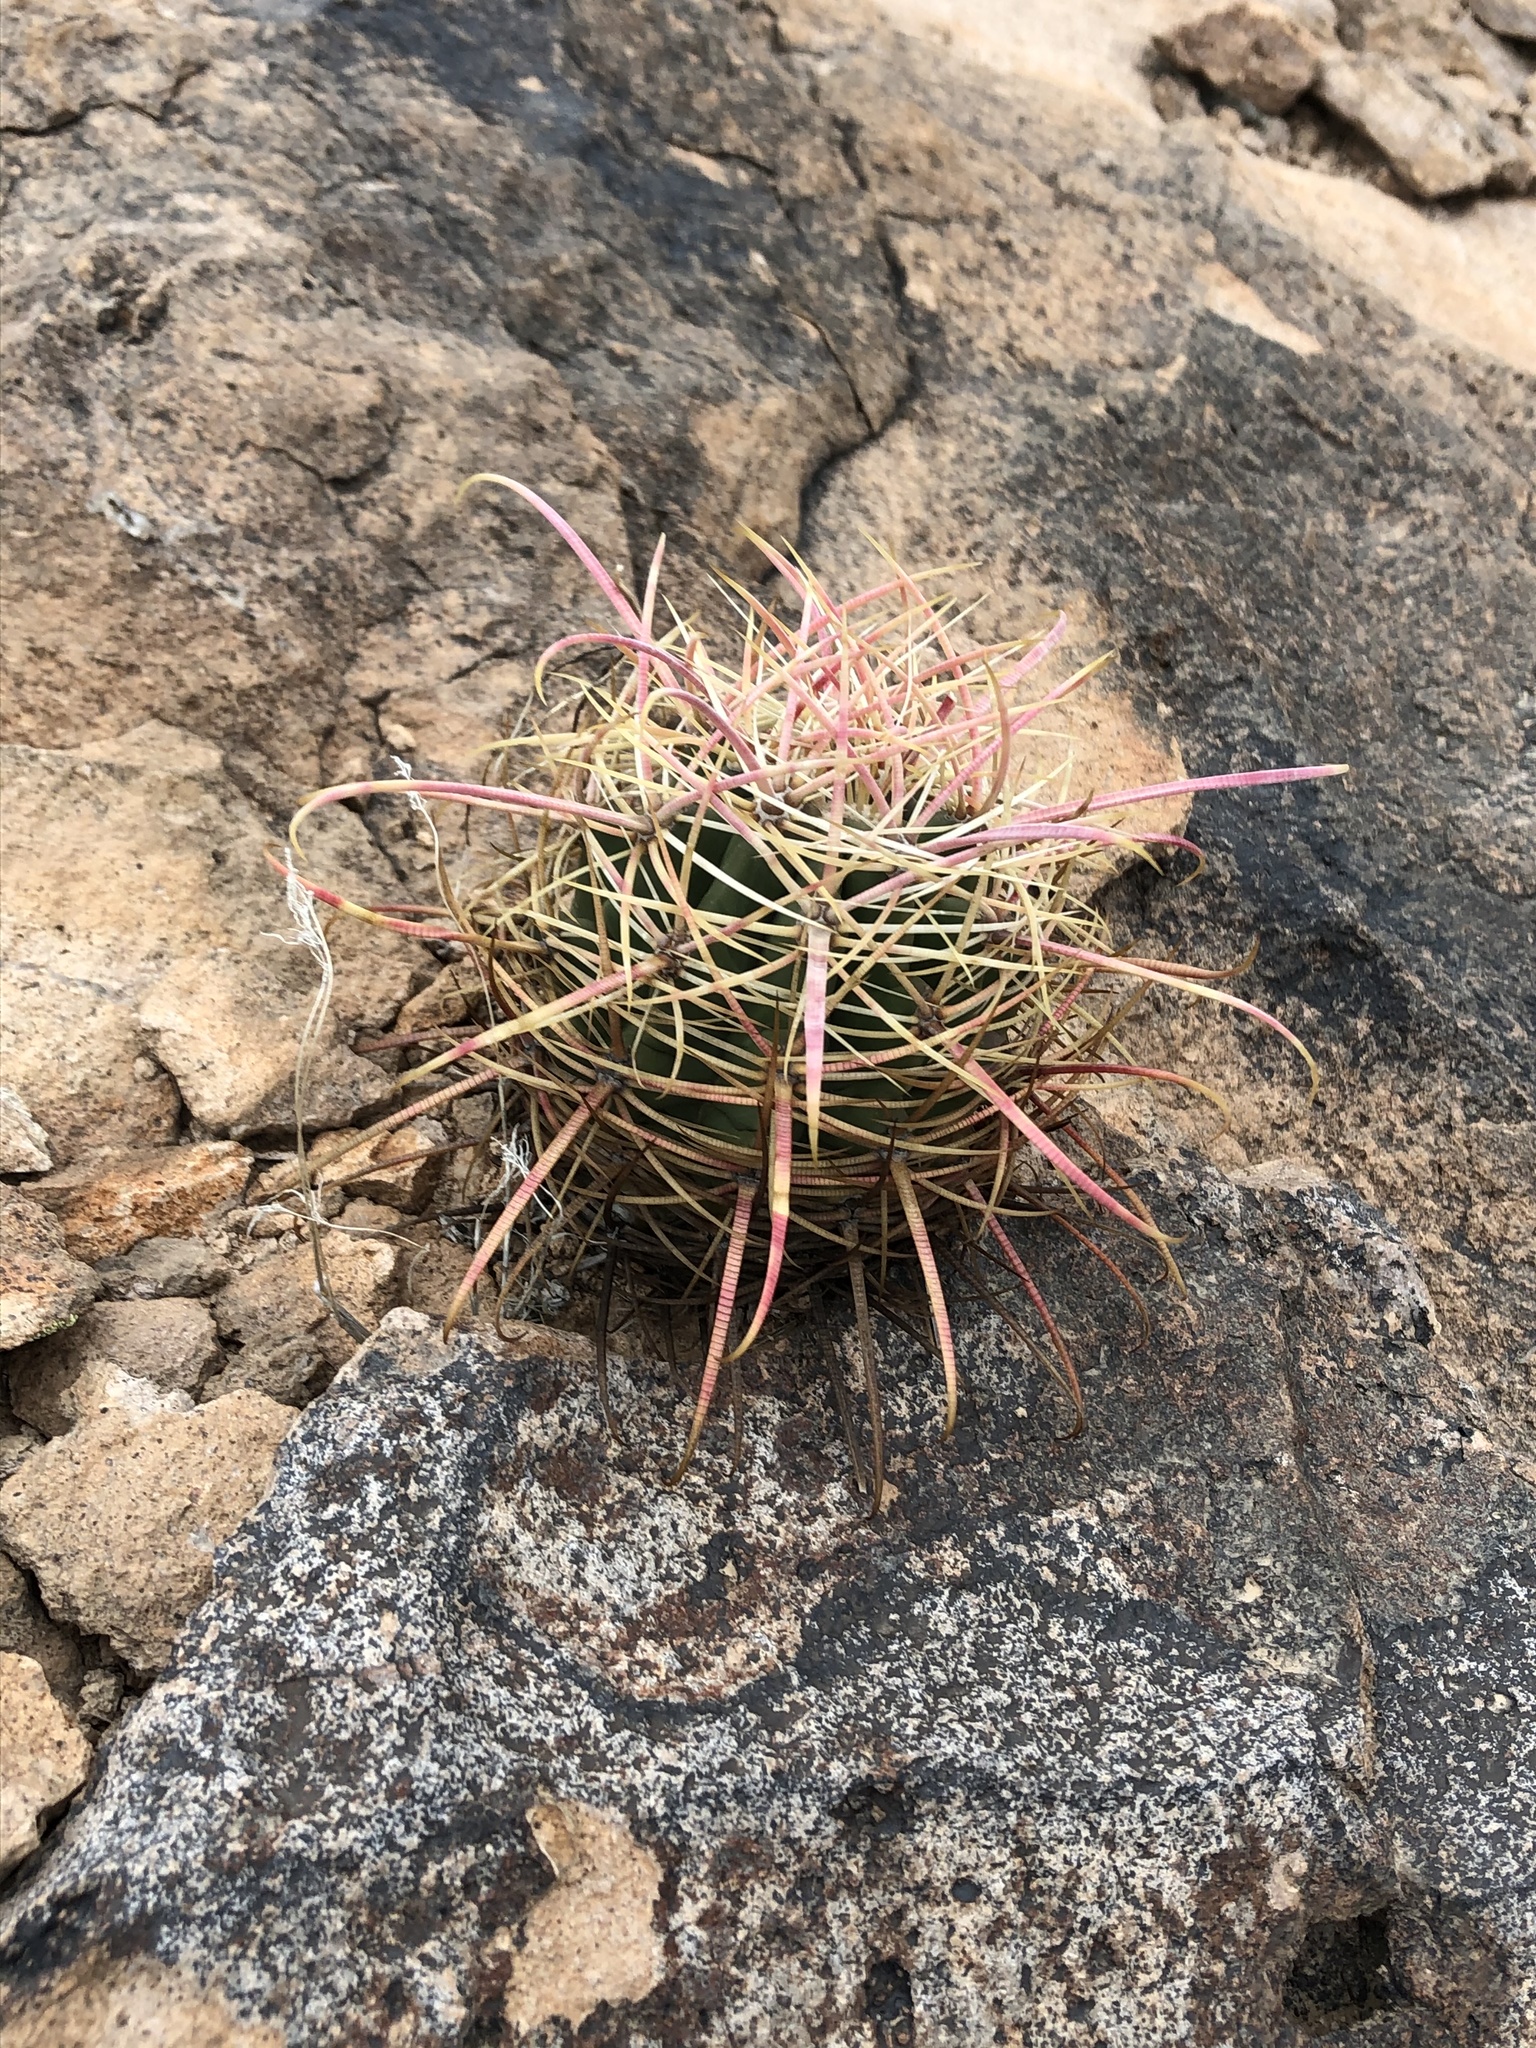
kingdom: Plantae
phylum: Tracheophyta
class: Magnoliopsida
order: Caryophyllales
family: Cactaceae
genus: Ferocactus
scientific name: Ferocactus cylindraceus
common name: California barrel cactus
